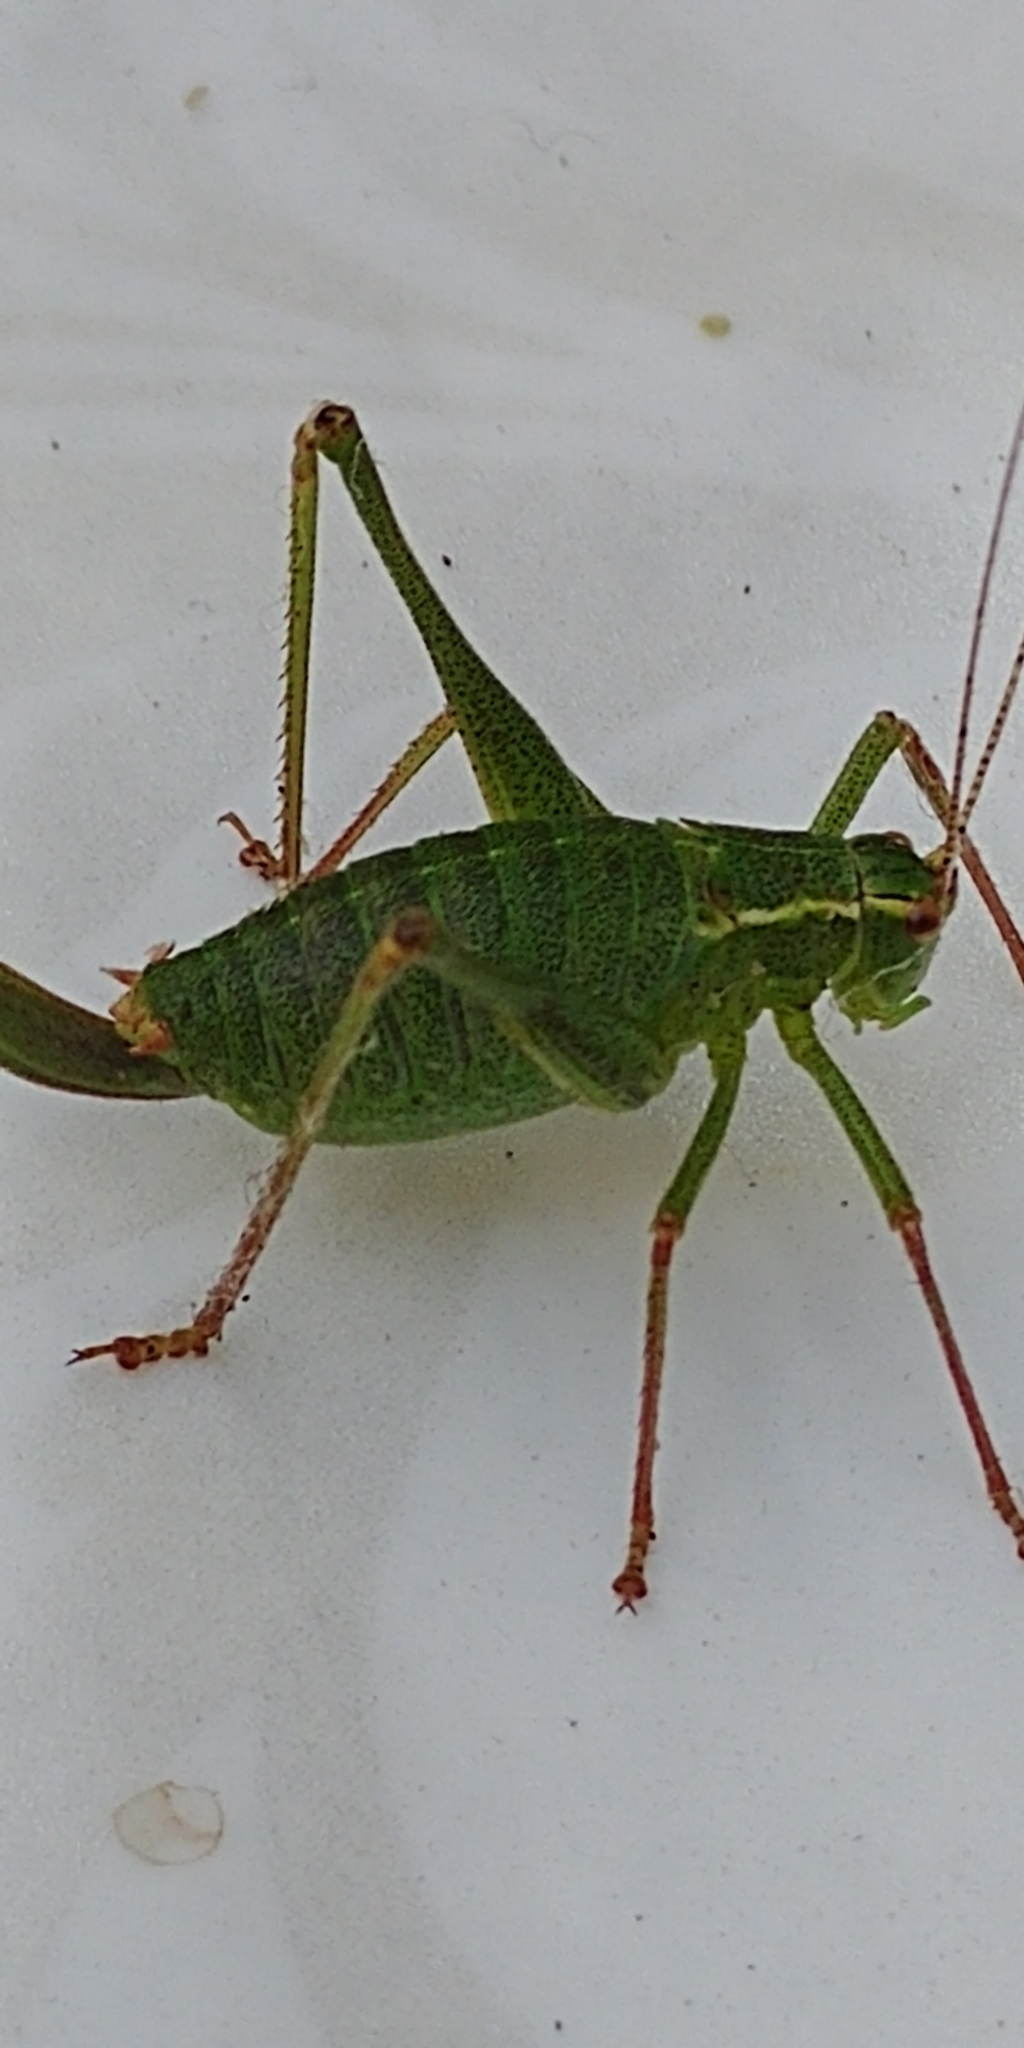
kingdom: Animalia
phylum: Arthropoda
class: Insecta
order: Orthoptera
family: Tettigoniidae
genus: Leptophyes
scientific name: Leptophyes punctatissima
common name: Speckled bush-cricket
